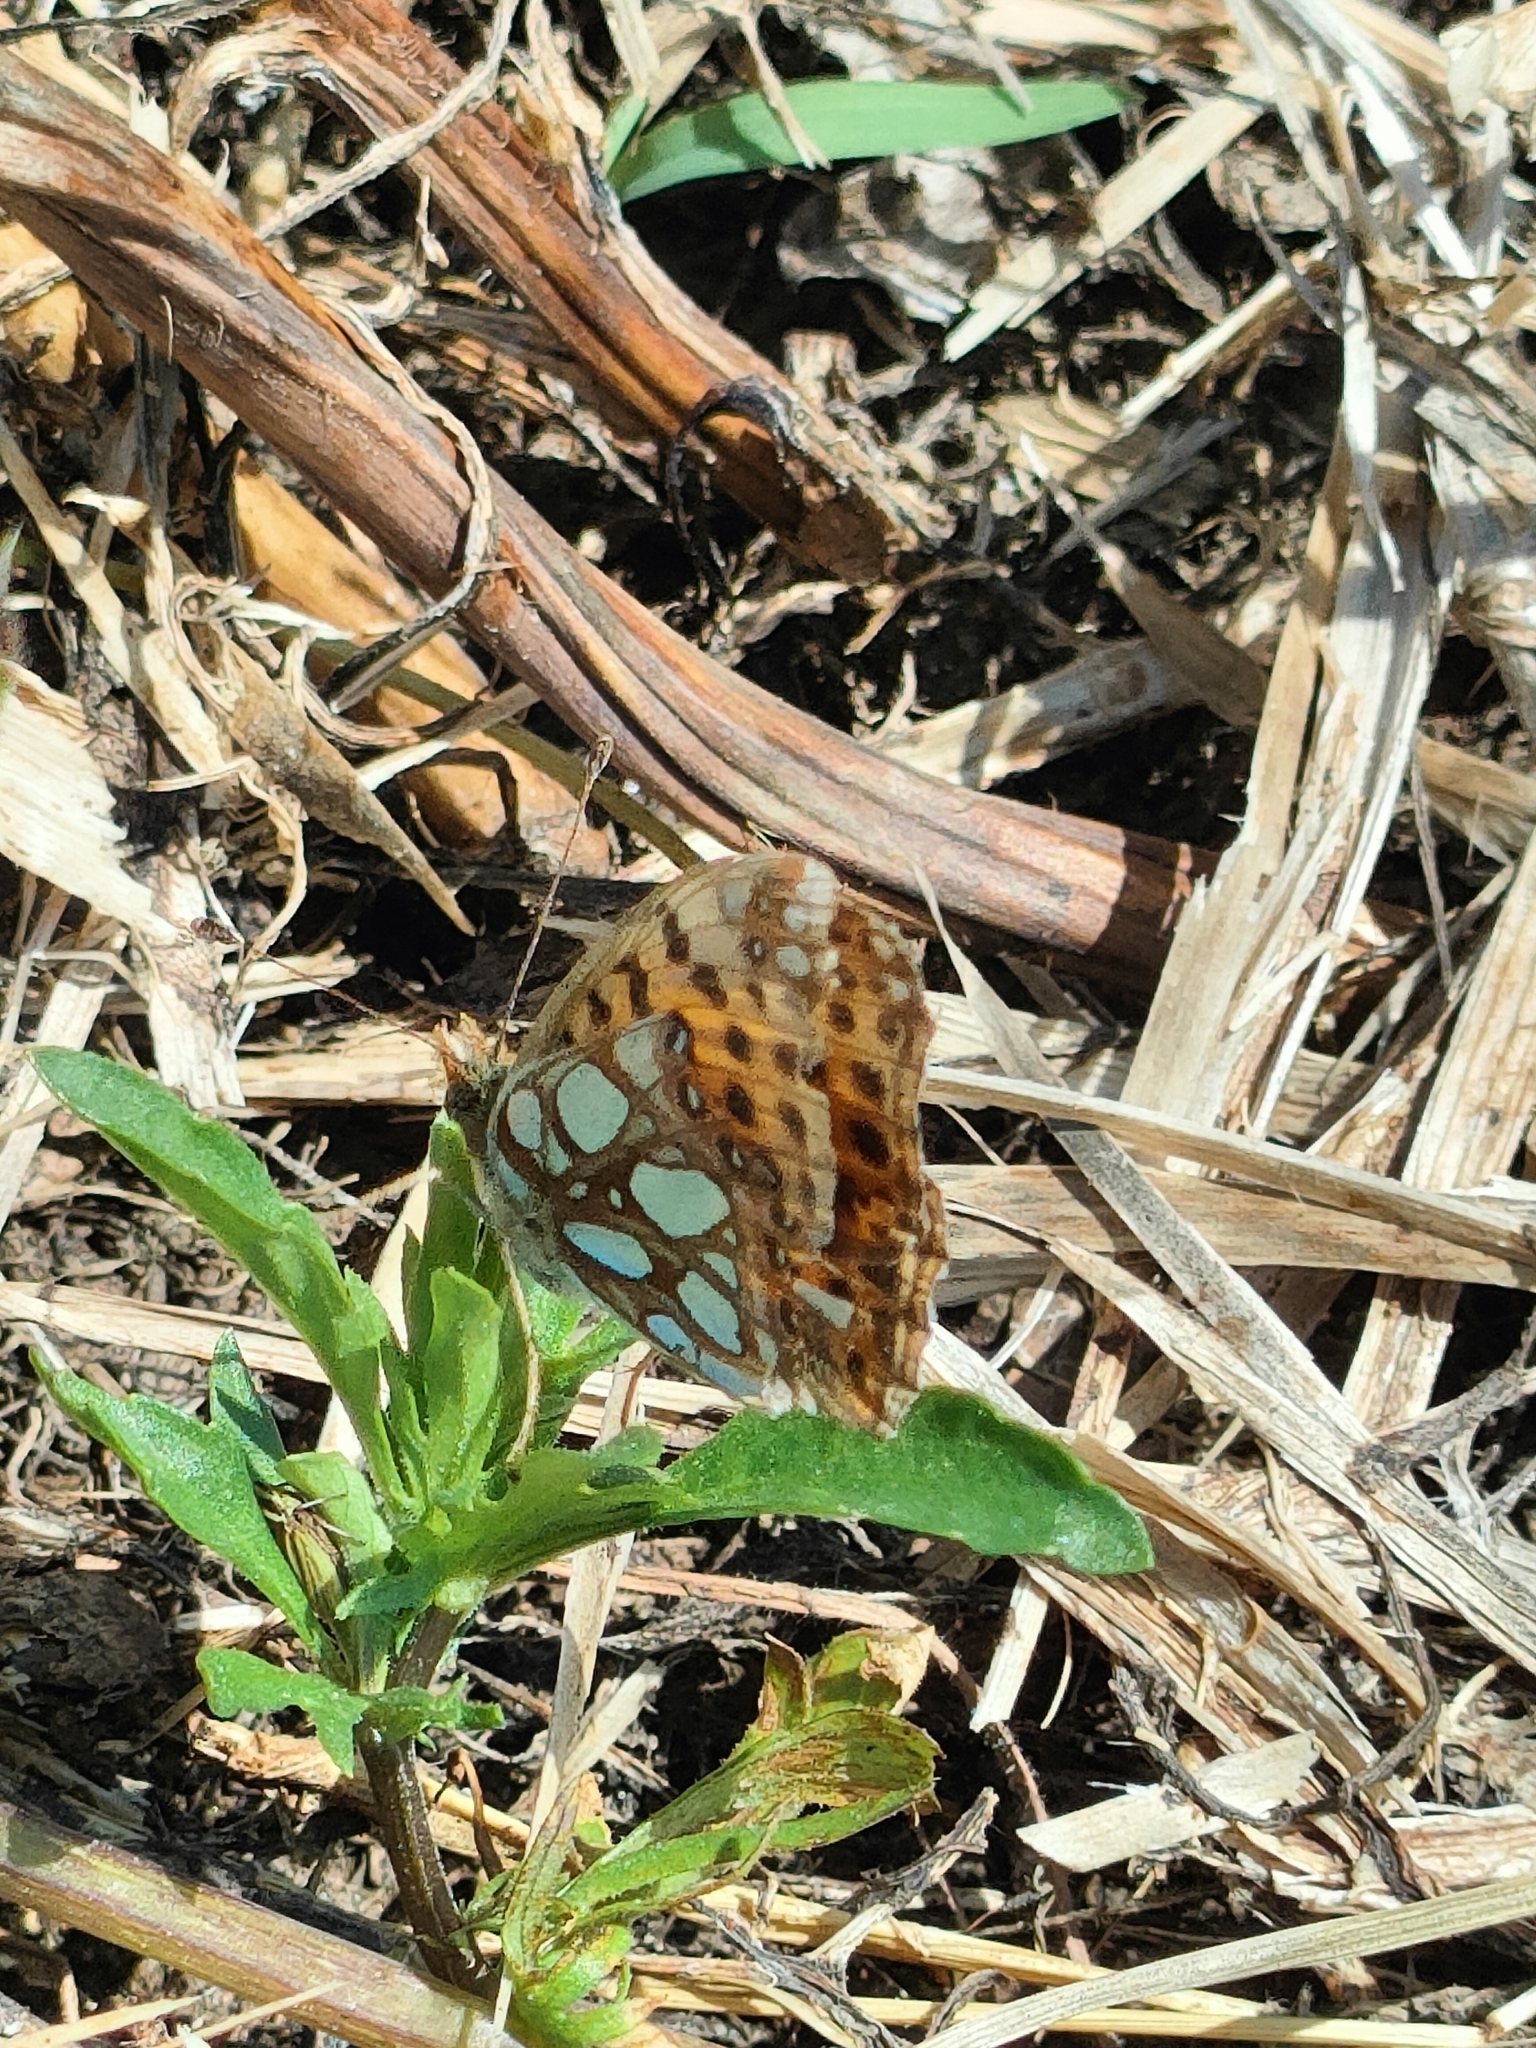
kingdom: Animalia
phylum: Arthropoda
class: Insecta
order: Lepidoptera
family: Nymphalidae
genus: Issoria
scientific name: Issoria lathonia
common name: Queen of spain fritillary
